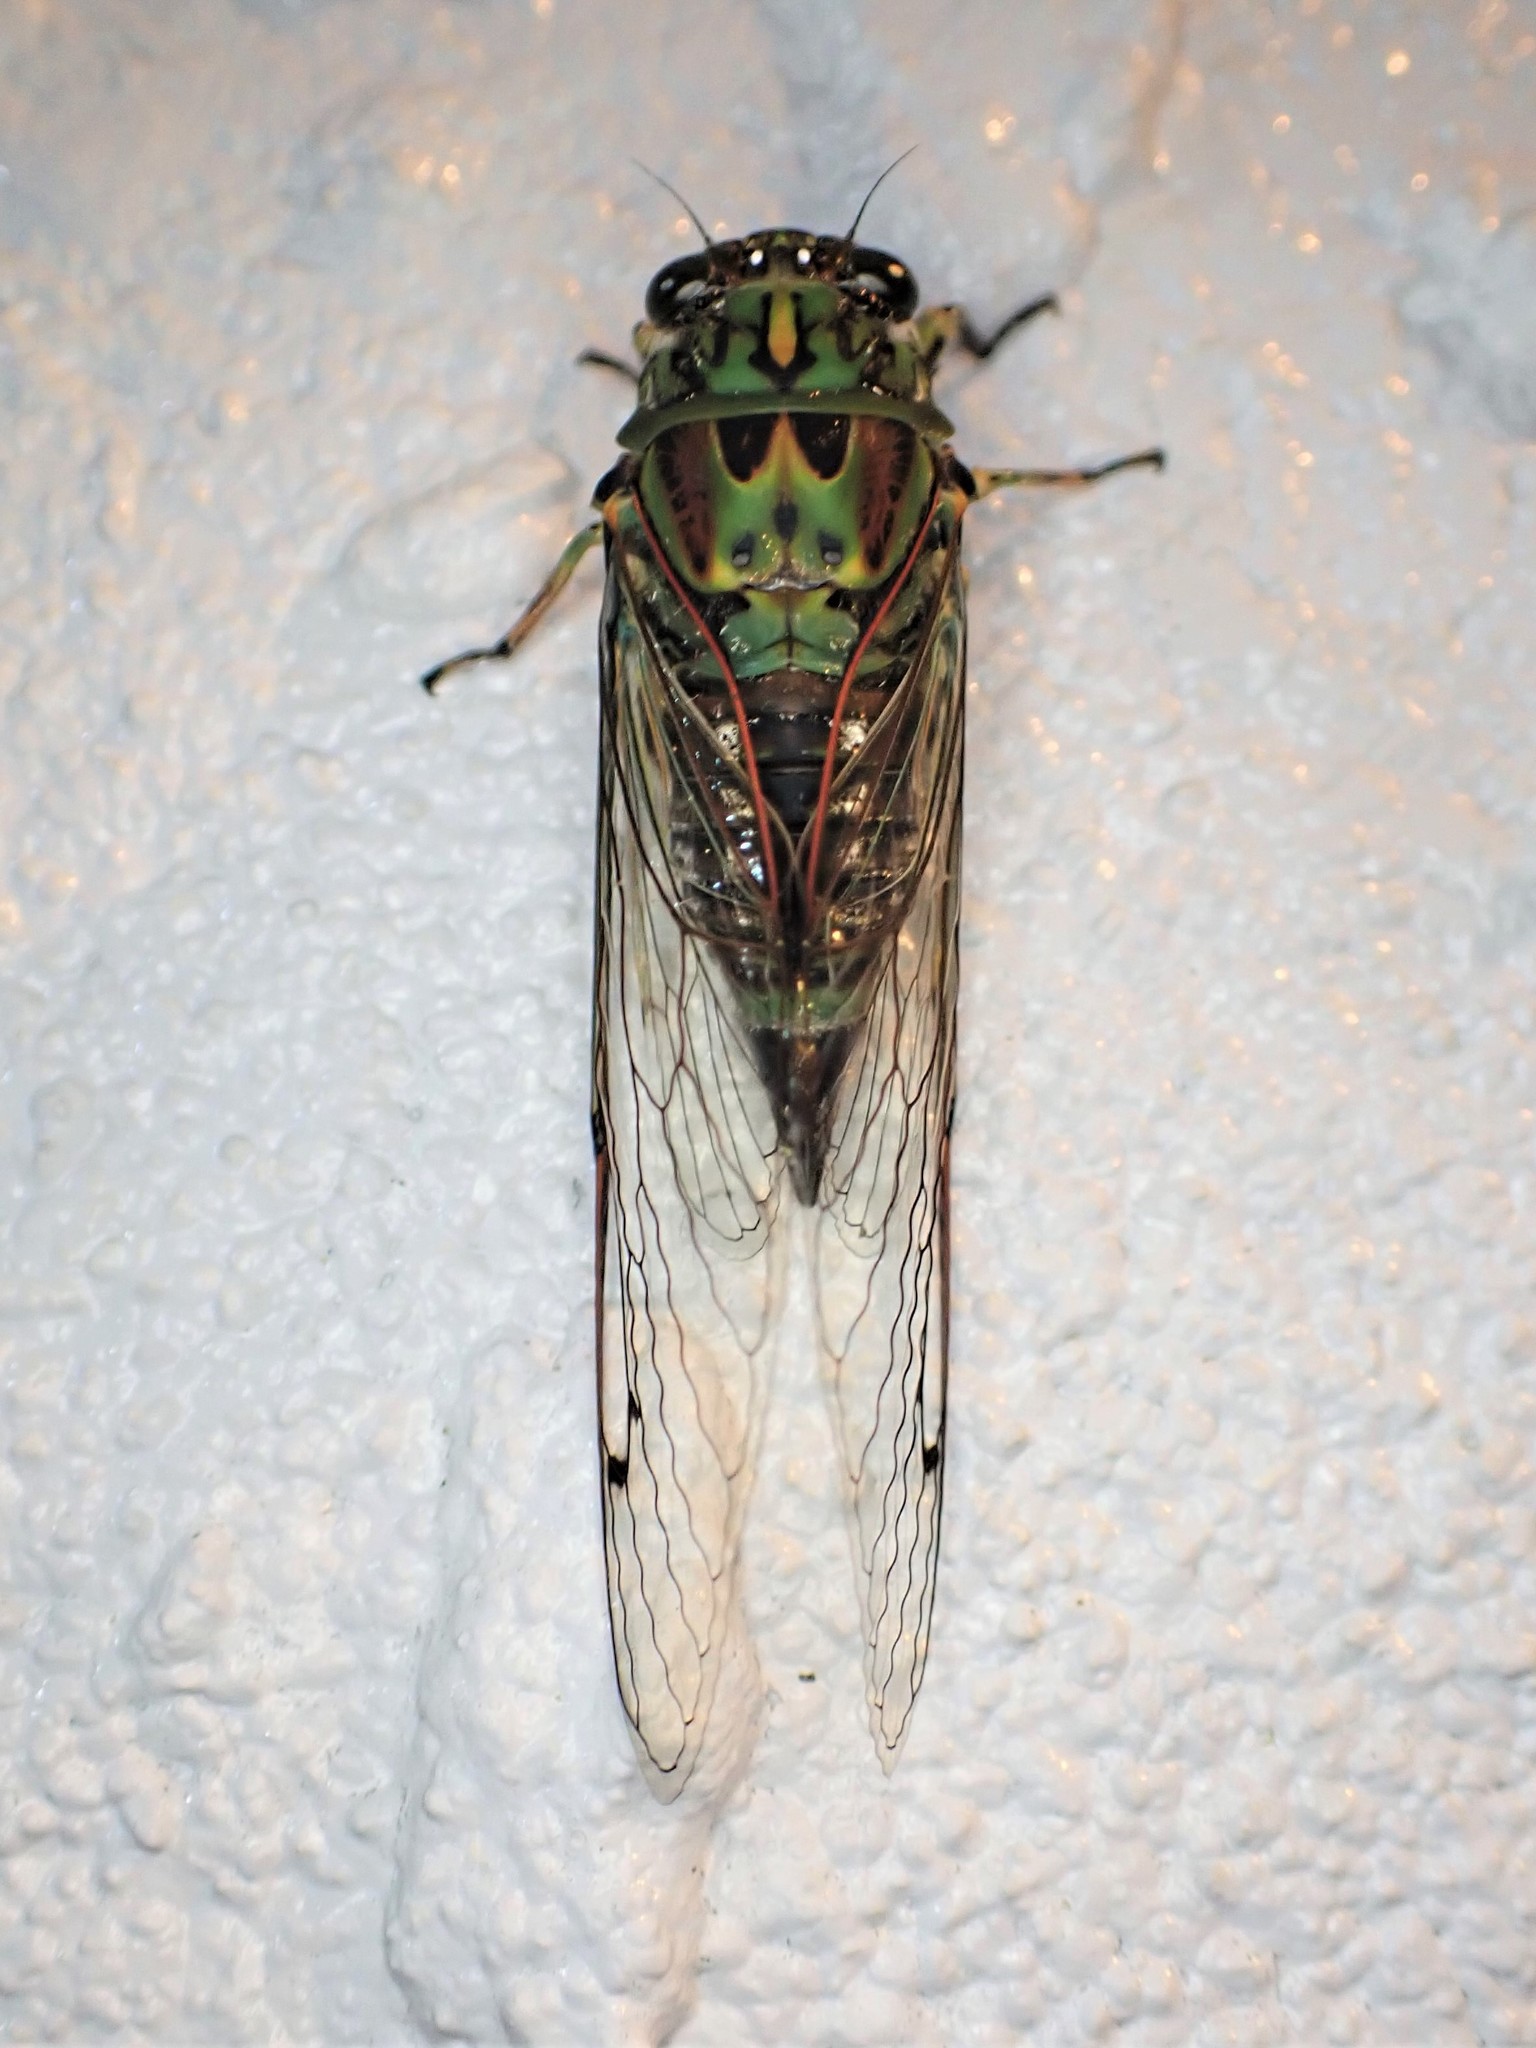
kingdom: Animalia
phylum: Arthropoda
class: Insecta
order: Hemiptera
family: Cicadidae
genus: Amphipsalta
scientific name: Amphipsalta zelandica
